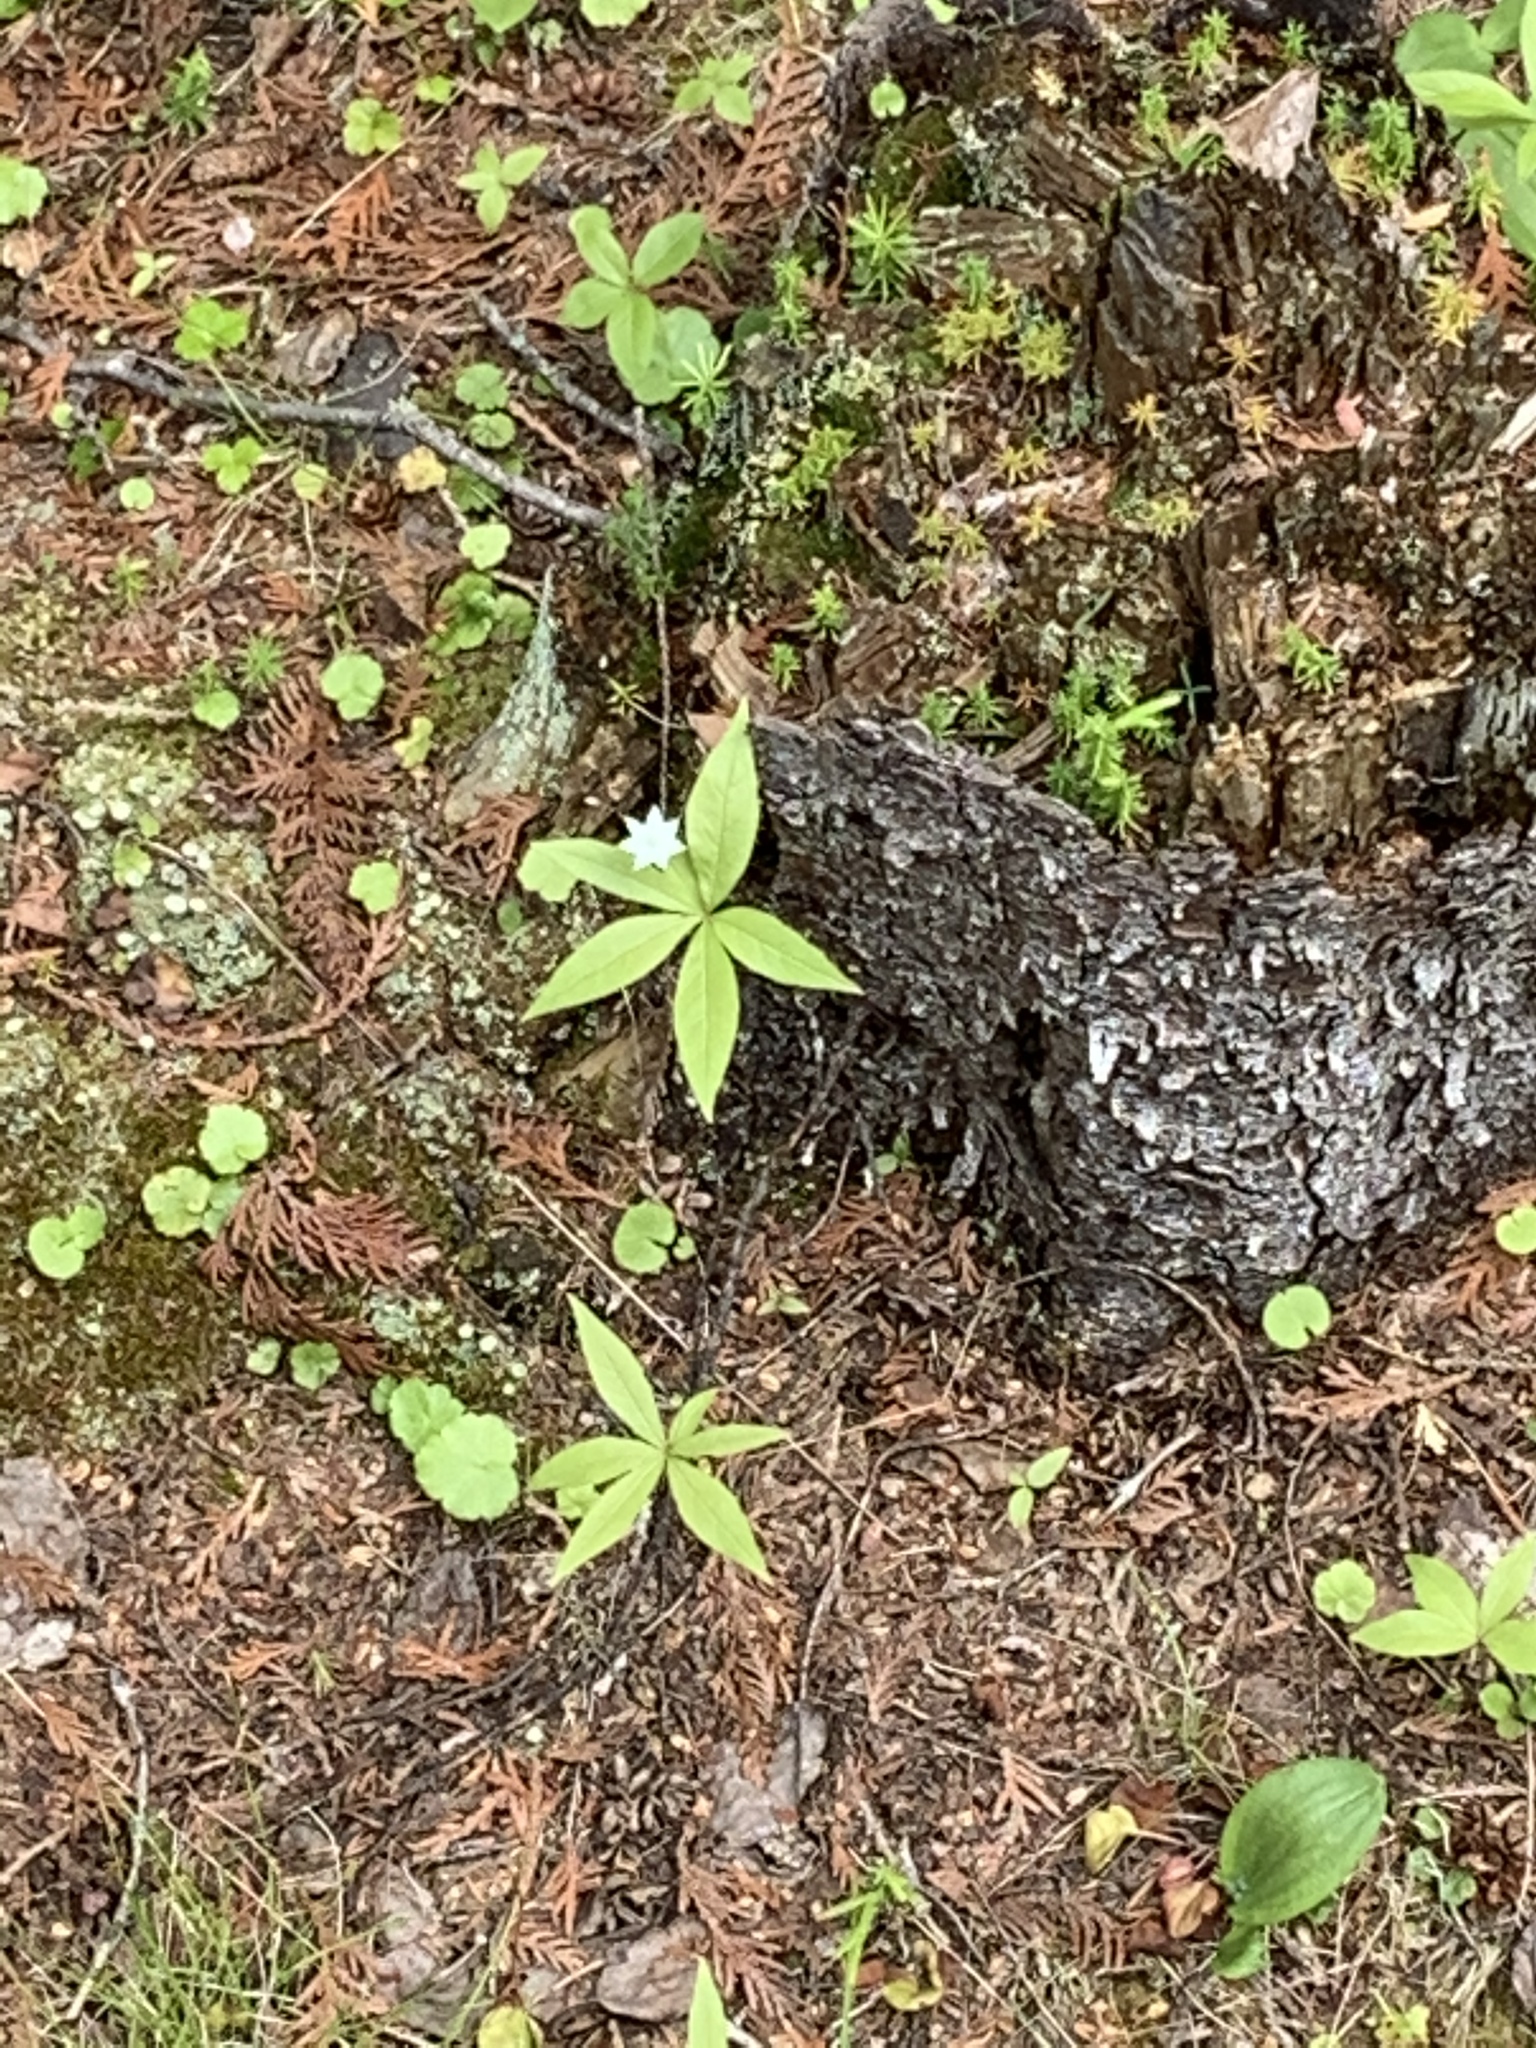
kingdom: Plantae
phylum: Tracheophyta
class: Magnoliopsida
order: Ericales
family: Primulaceae
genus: Lysimachia
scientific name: Lysimachia borealis
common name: American starflower
